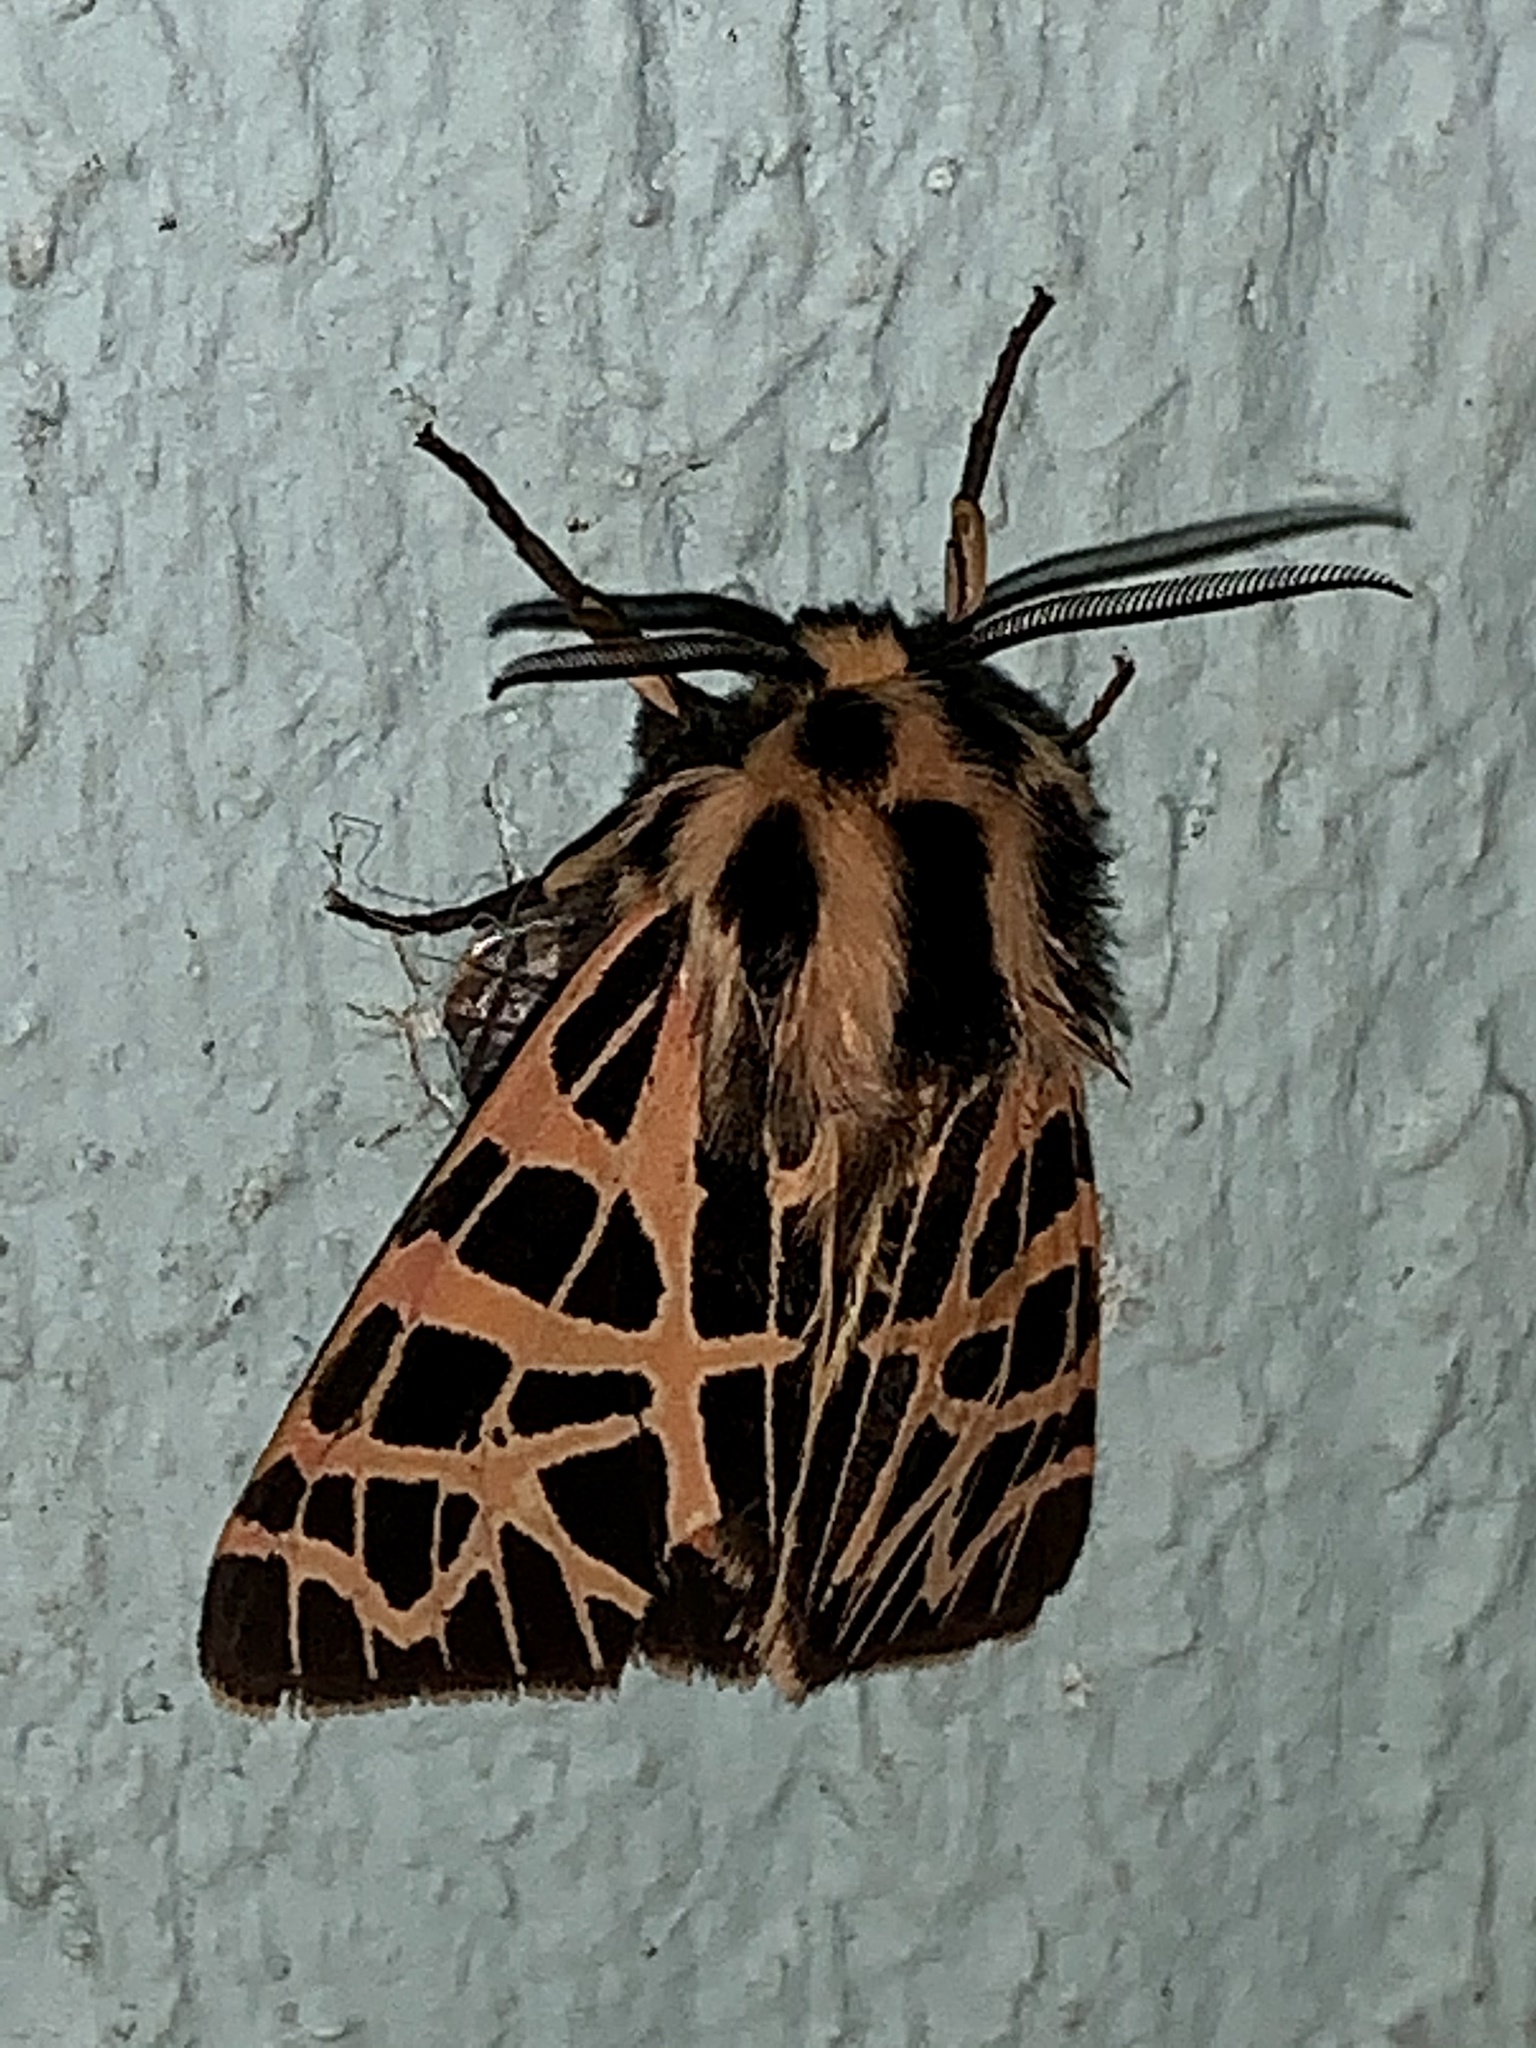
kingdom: Animalia
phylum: Arthropoda
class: Insecta
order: Lepidoptera
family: Erebidae
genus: Apantesis
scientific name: Apantesis
